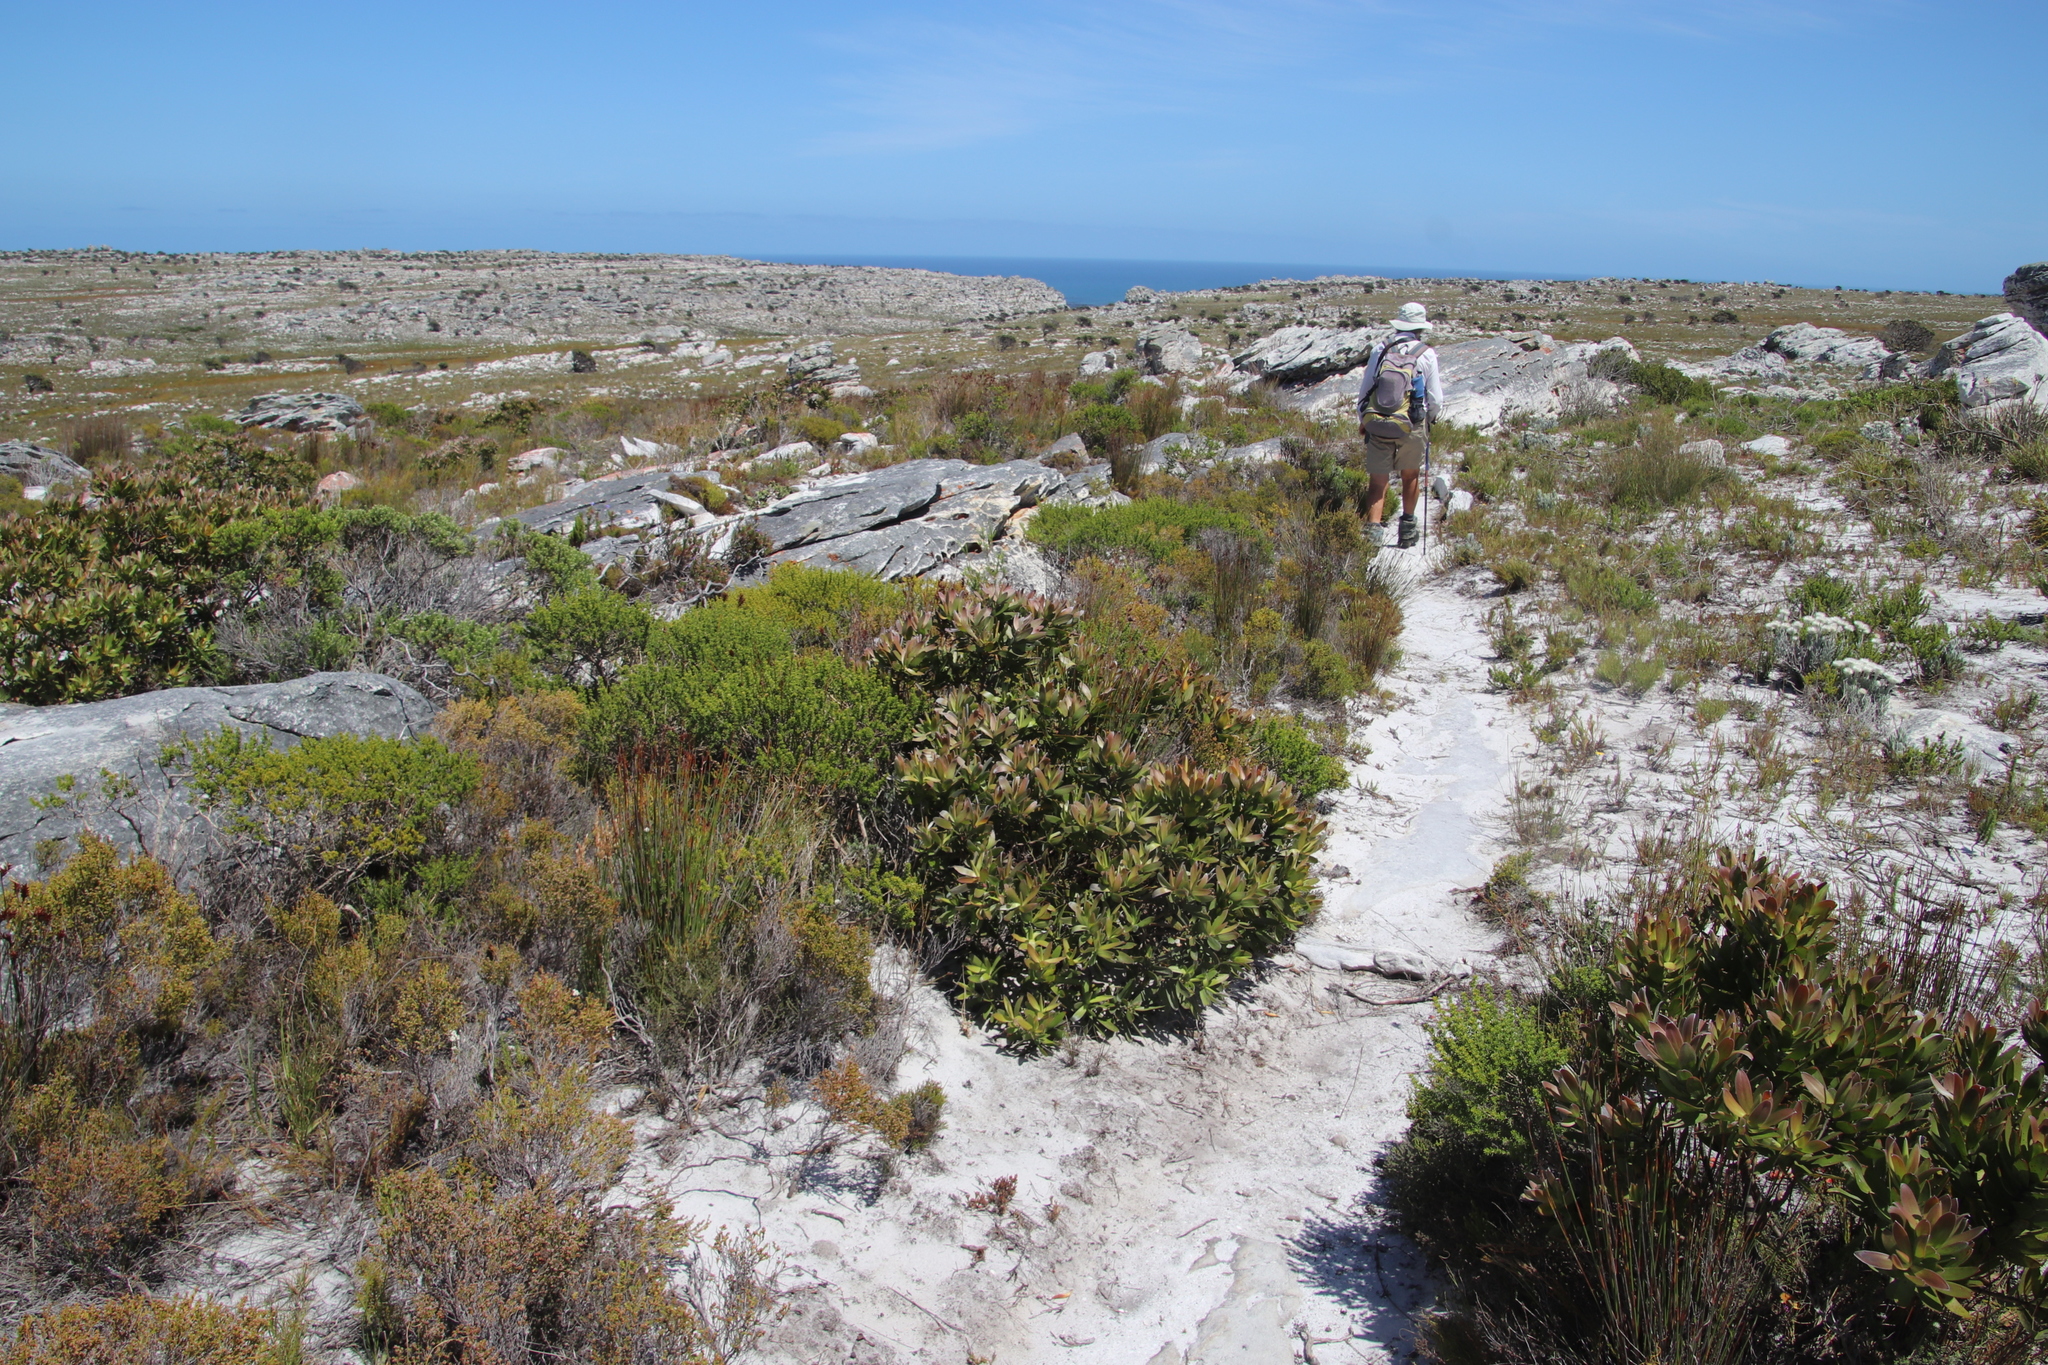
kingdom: Plantae
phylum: Tracheophyta
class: Magnoliopsida
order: Proteales
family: Proteaceae
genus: Leucadendron
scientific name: Leucadendron laureolum
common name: Golden sunshinebush
